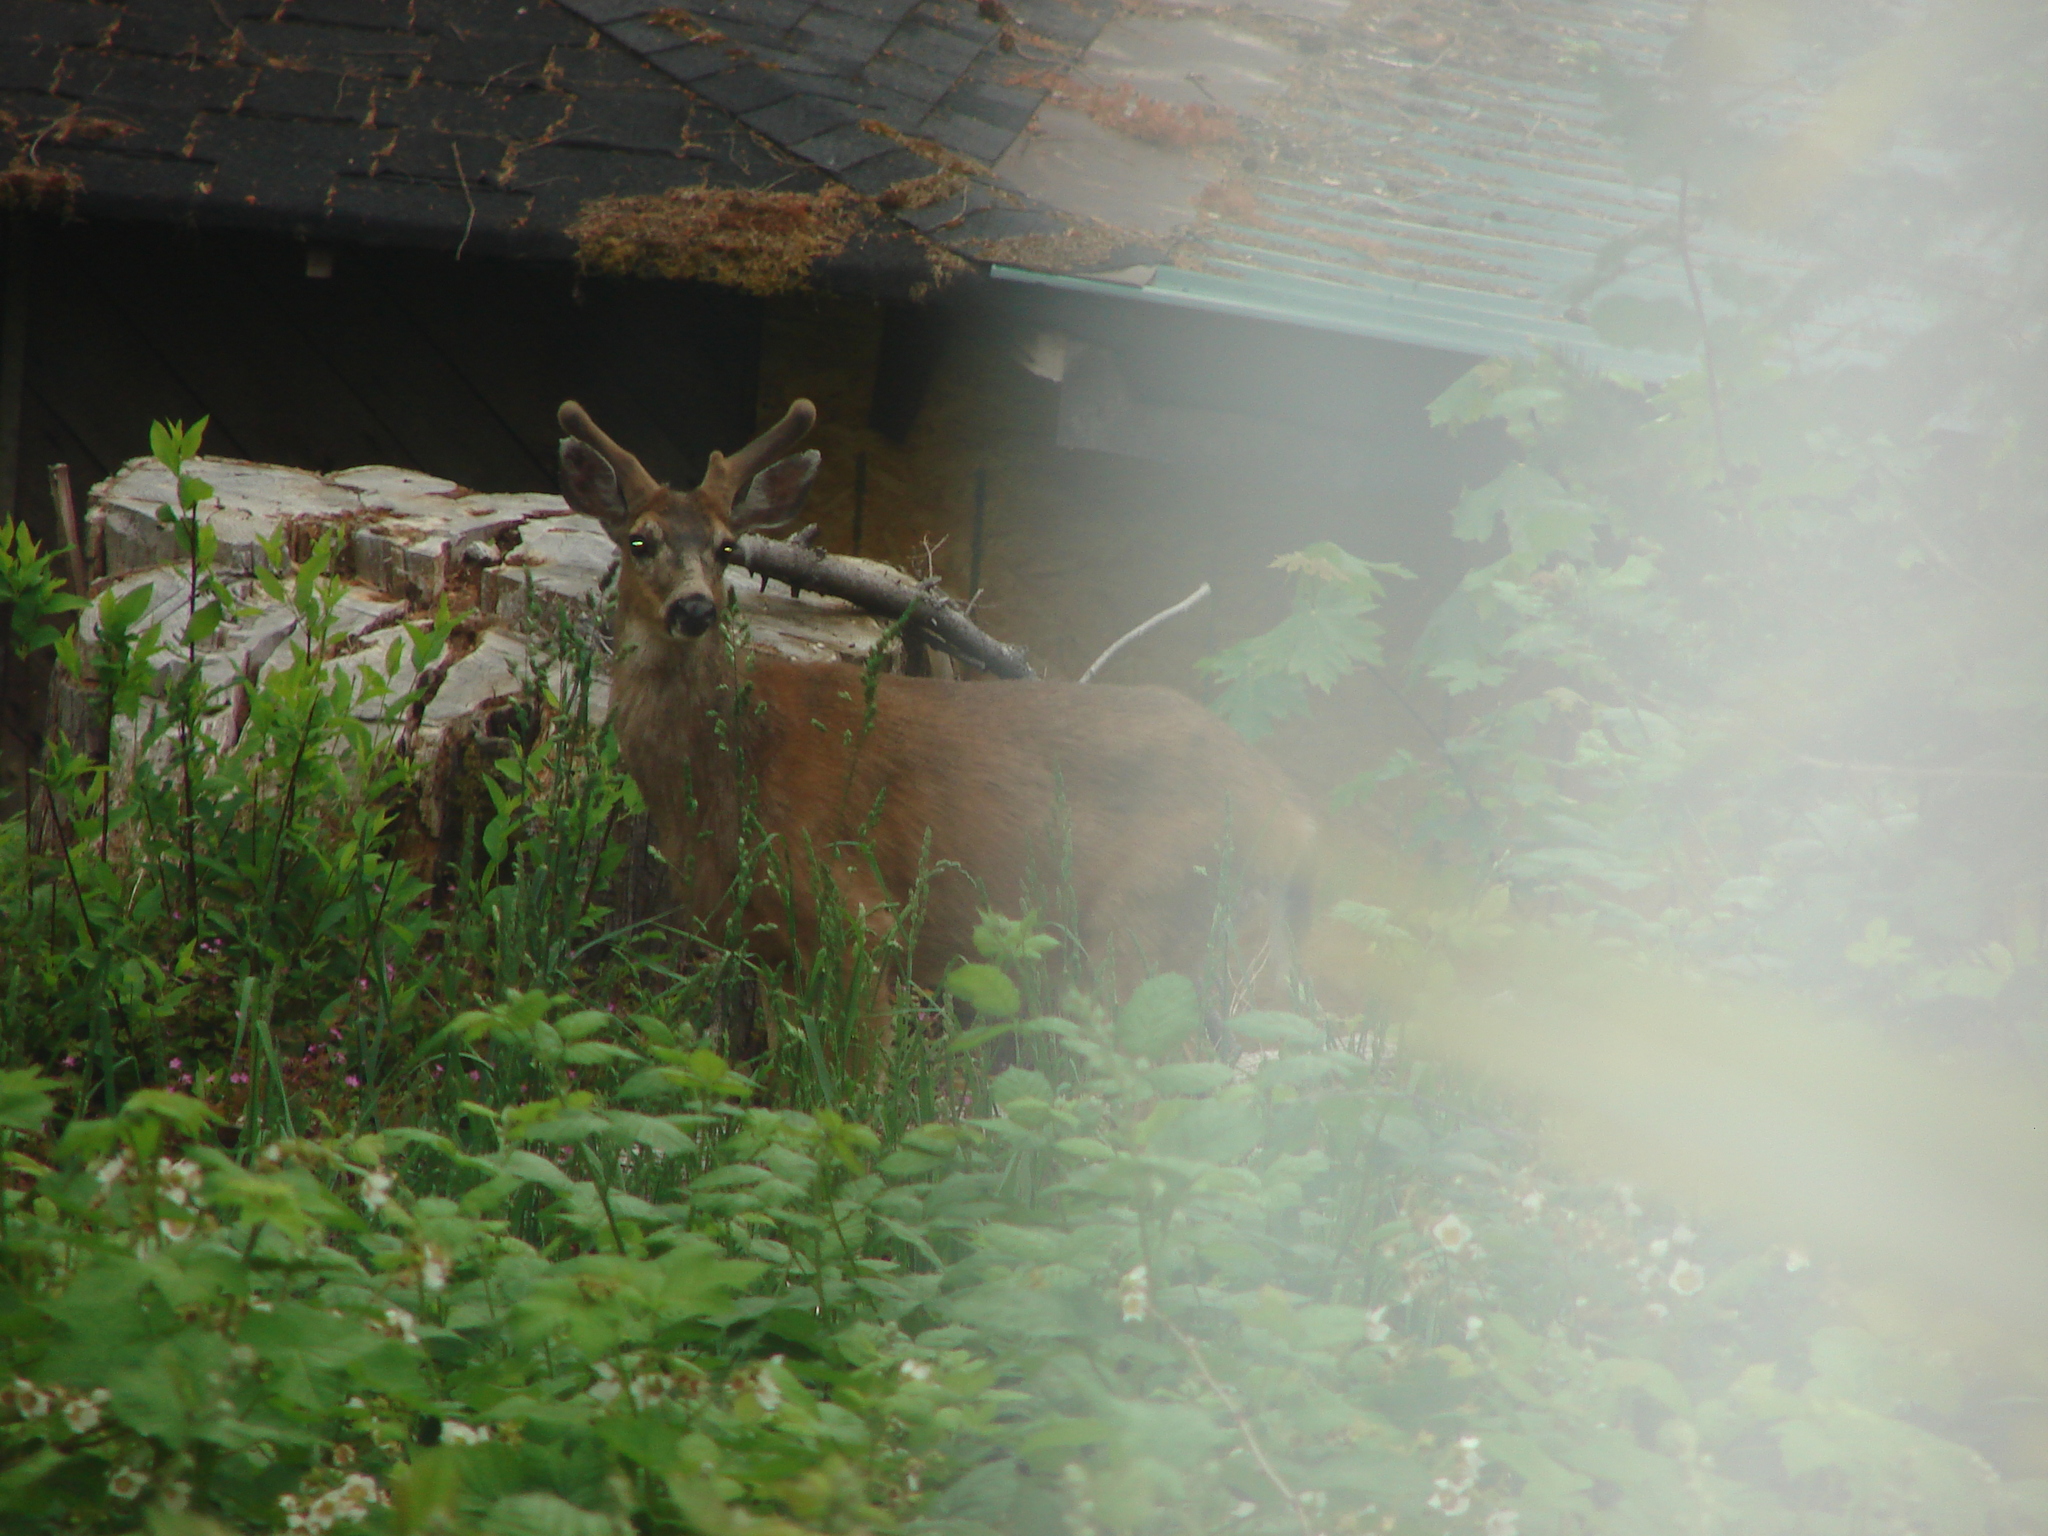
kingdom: Animalia
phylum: Chordata
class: Mammalia
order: Artiodactyla
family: Cervidae
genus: Odocoileus
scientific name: Odocoileus hemionus
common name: Mule deer
